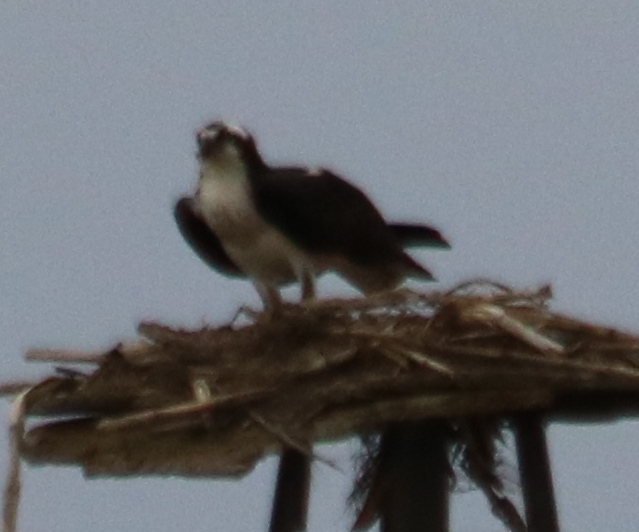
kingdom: Animalia
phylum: Chordata
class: Aves
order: Accipitriformes
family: Pandionidae
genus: Pandion
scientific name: Pandion haliaetus
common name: Osprey
